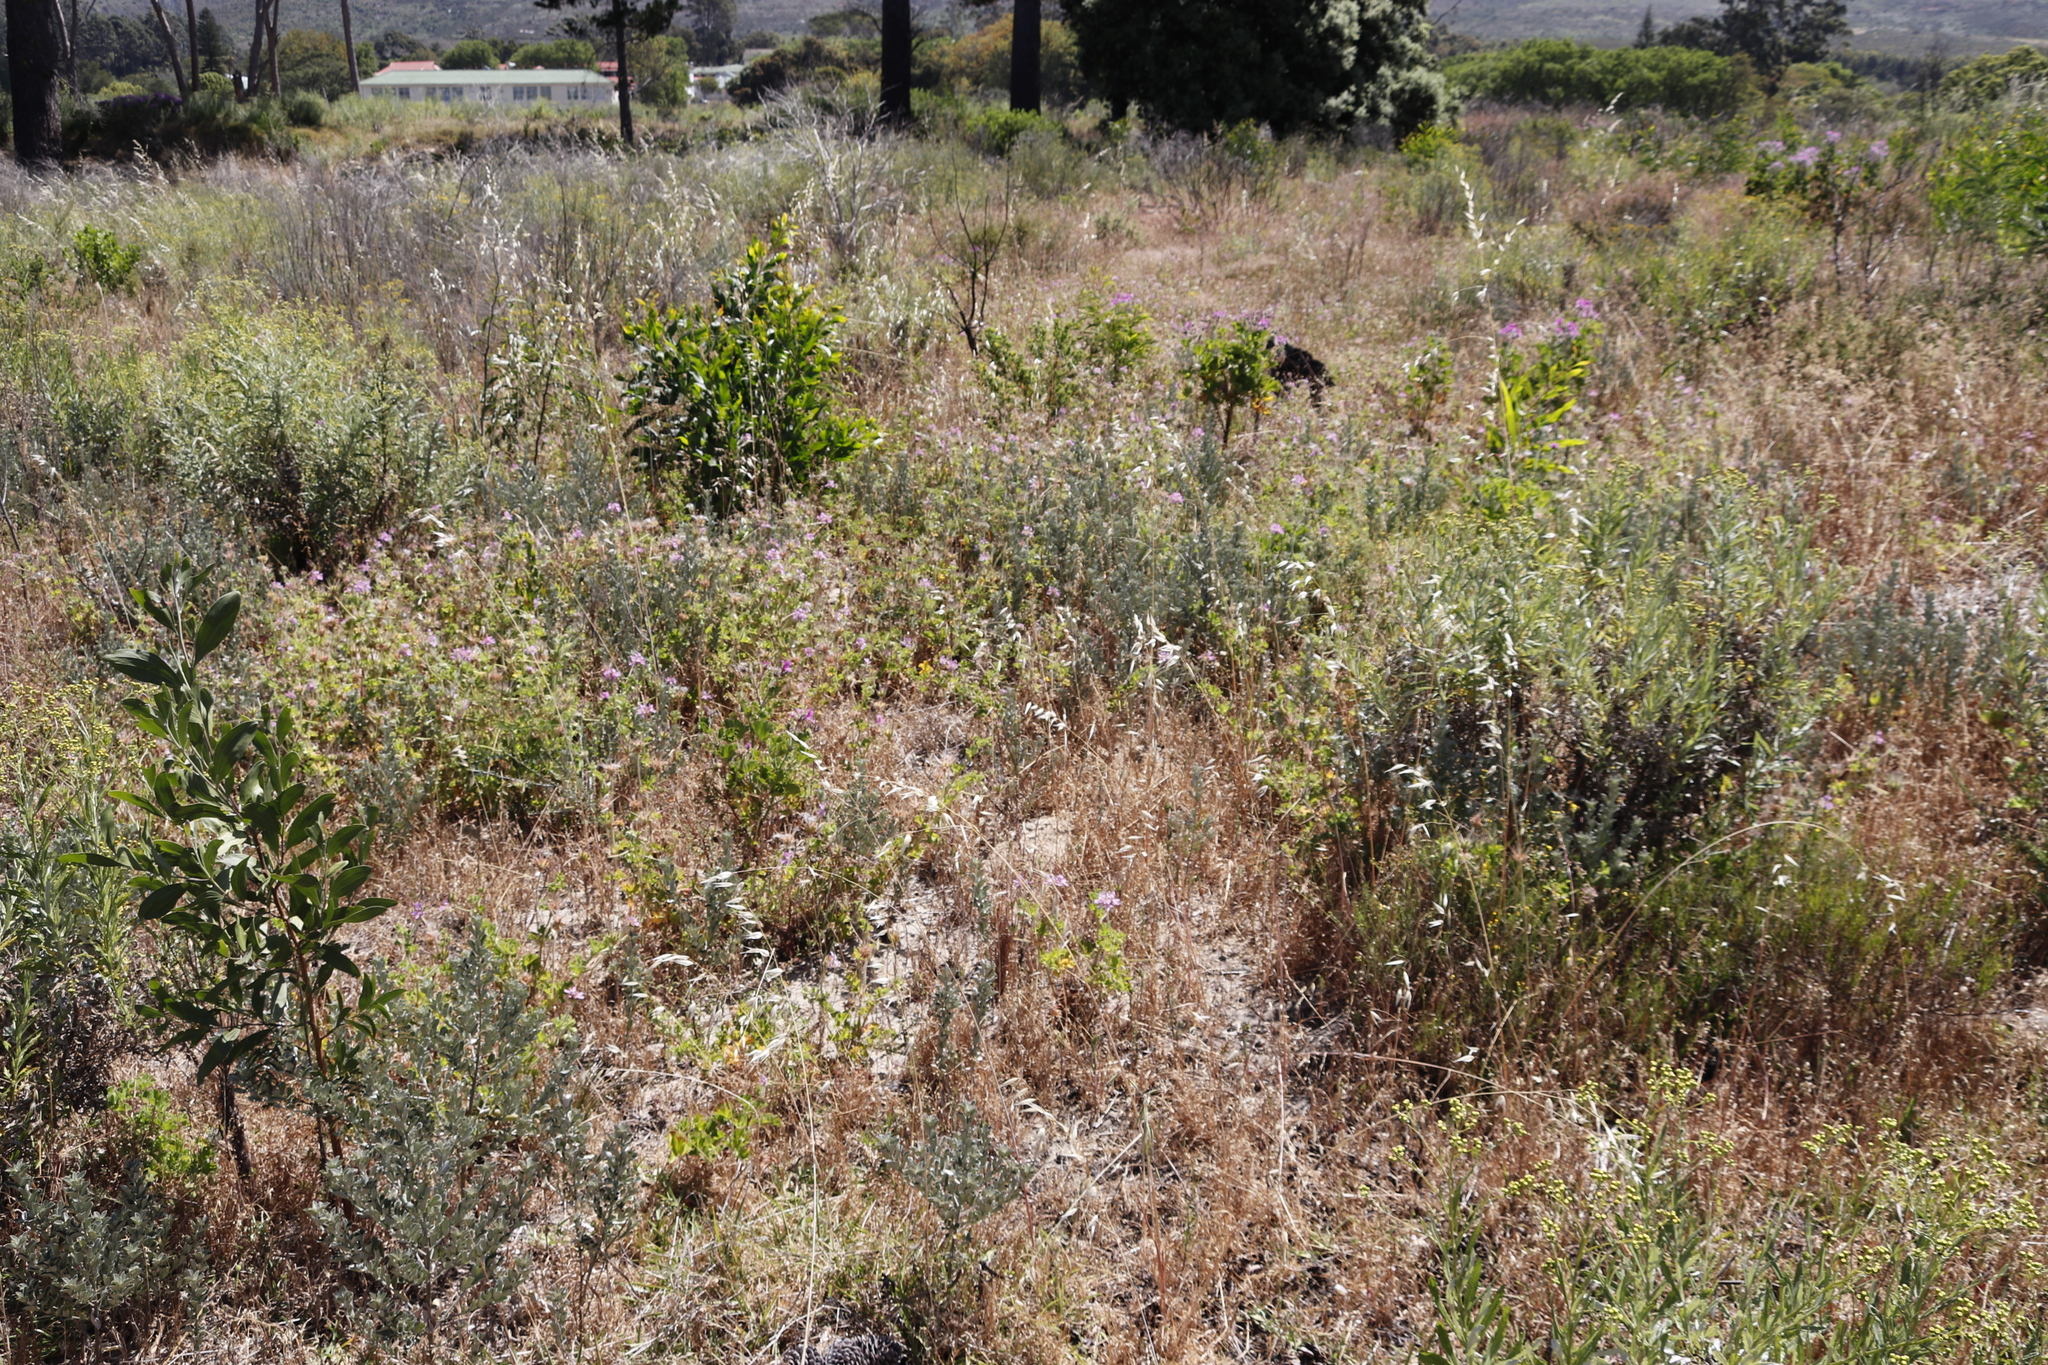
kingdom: Plantae
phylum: Tracheophyta
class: Magnoliopsida
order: Geraniales
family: Geraniaceae
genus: Pelargonium
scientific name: Pelargonium capitatum
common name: Rose scented geranium
